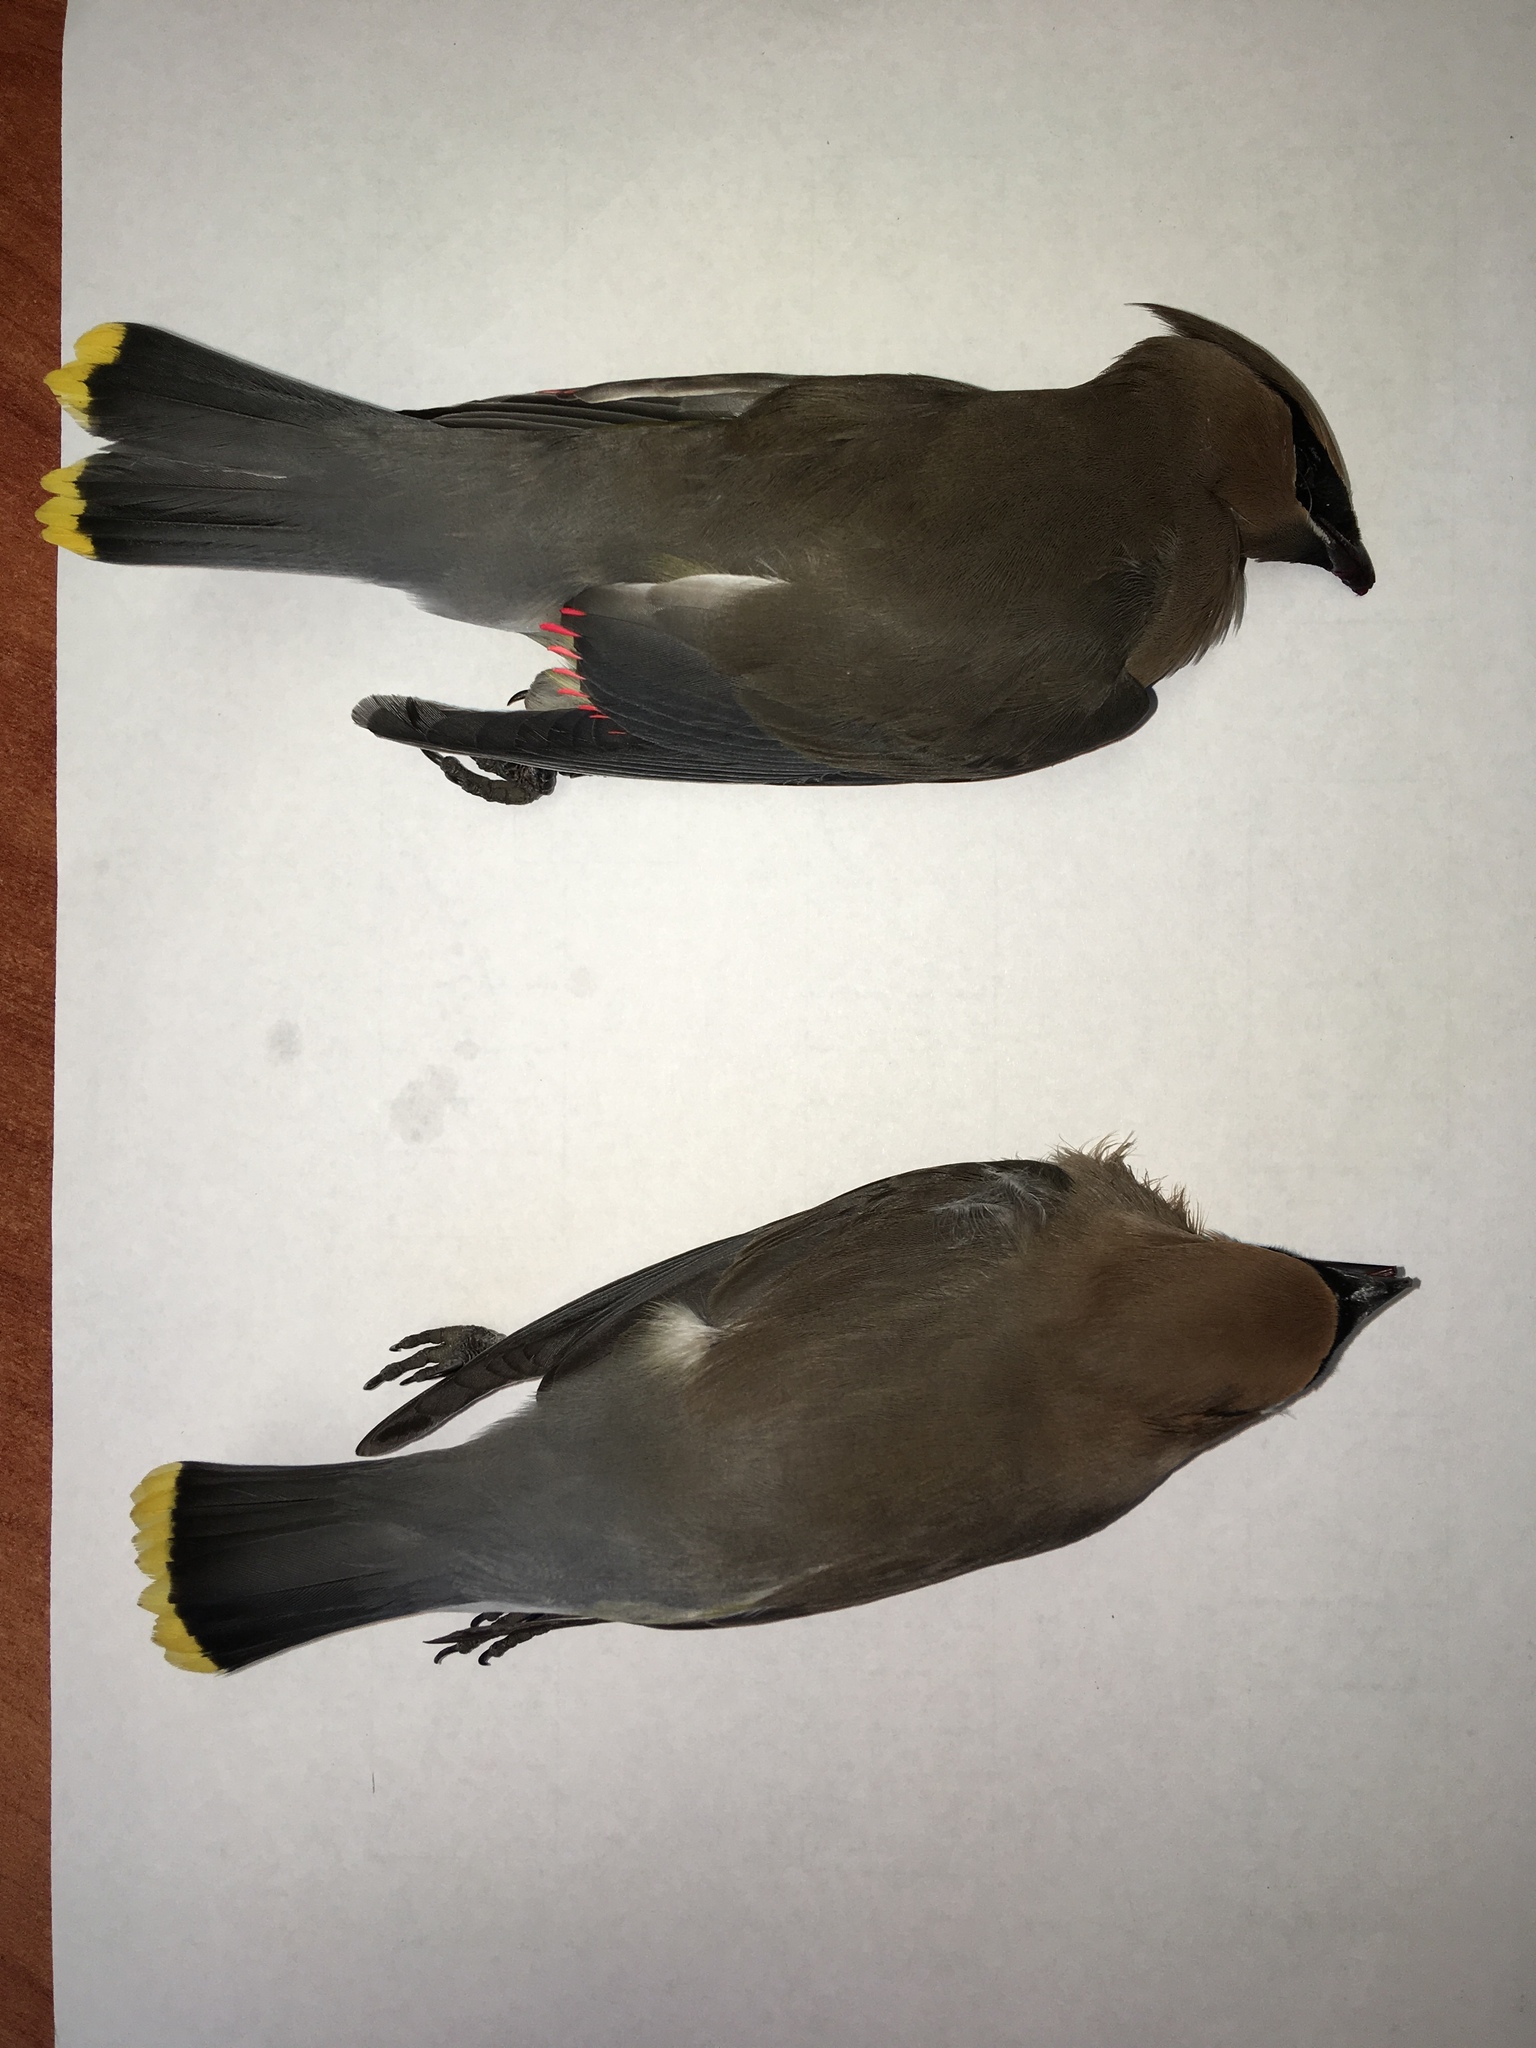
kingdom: Animalia
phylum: Chordata
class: Aves
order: Passeriformes
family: Bombycillidae
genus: Bombycilla
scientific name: Bombycilla cedrorum
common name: Cedar waxwing
